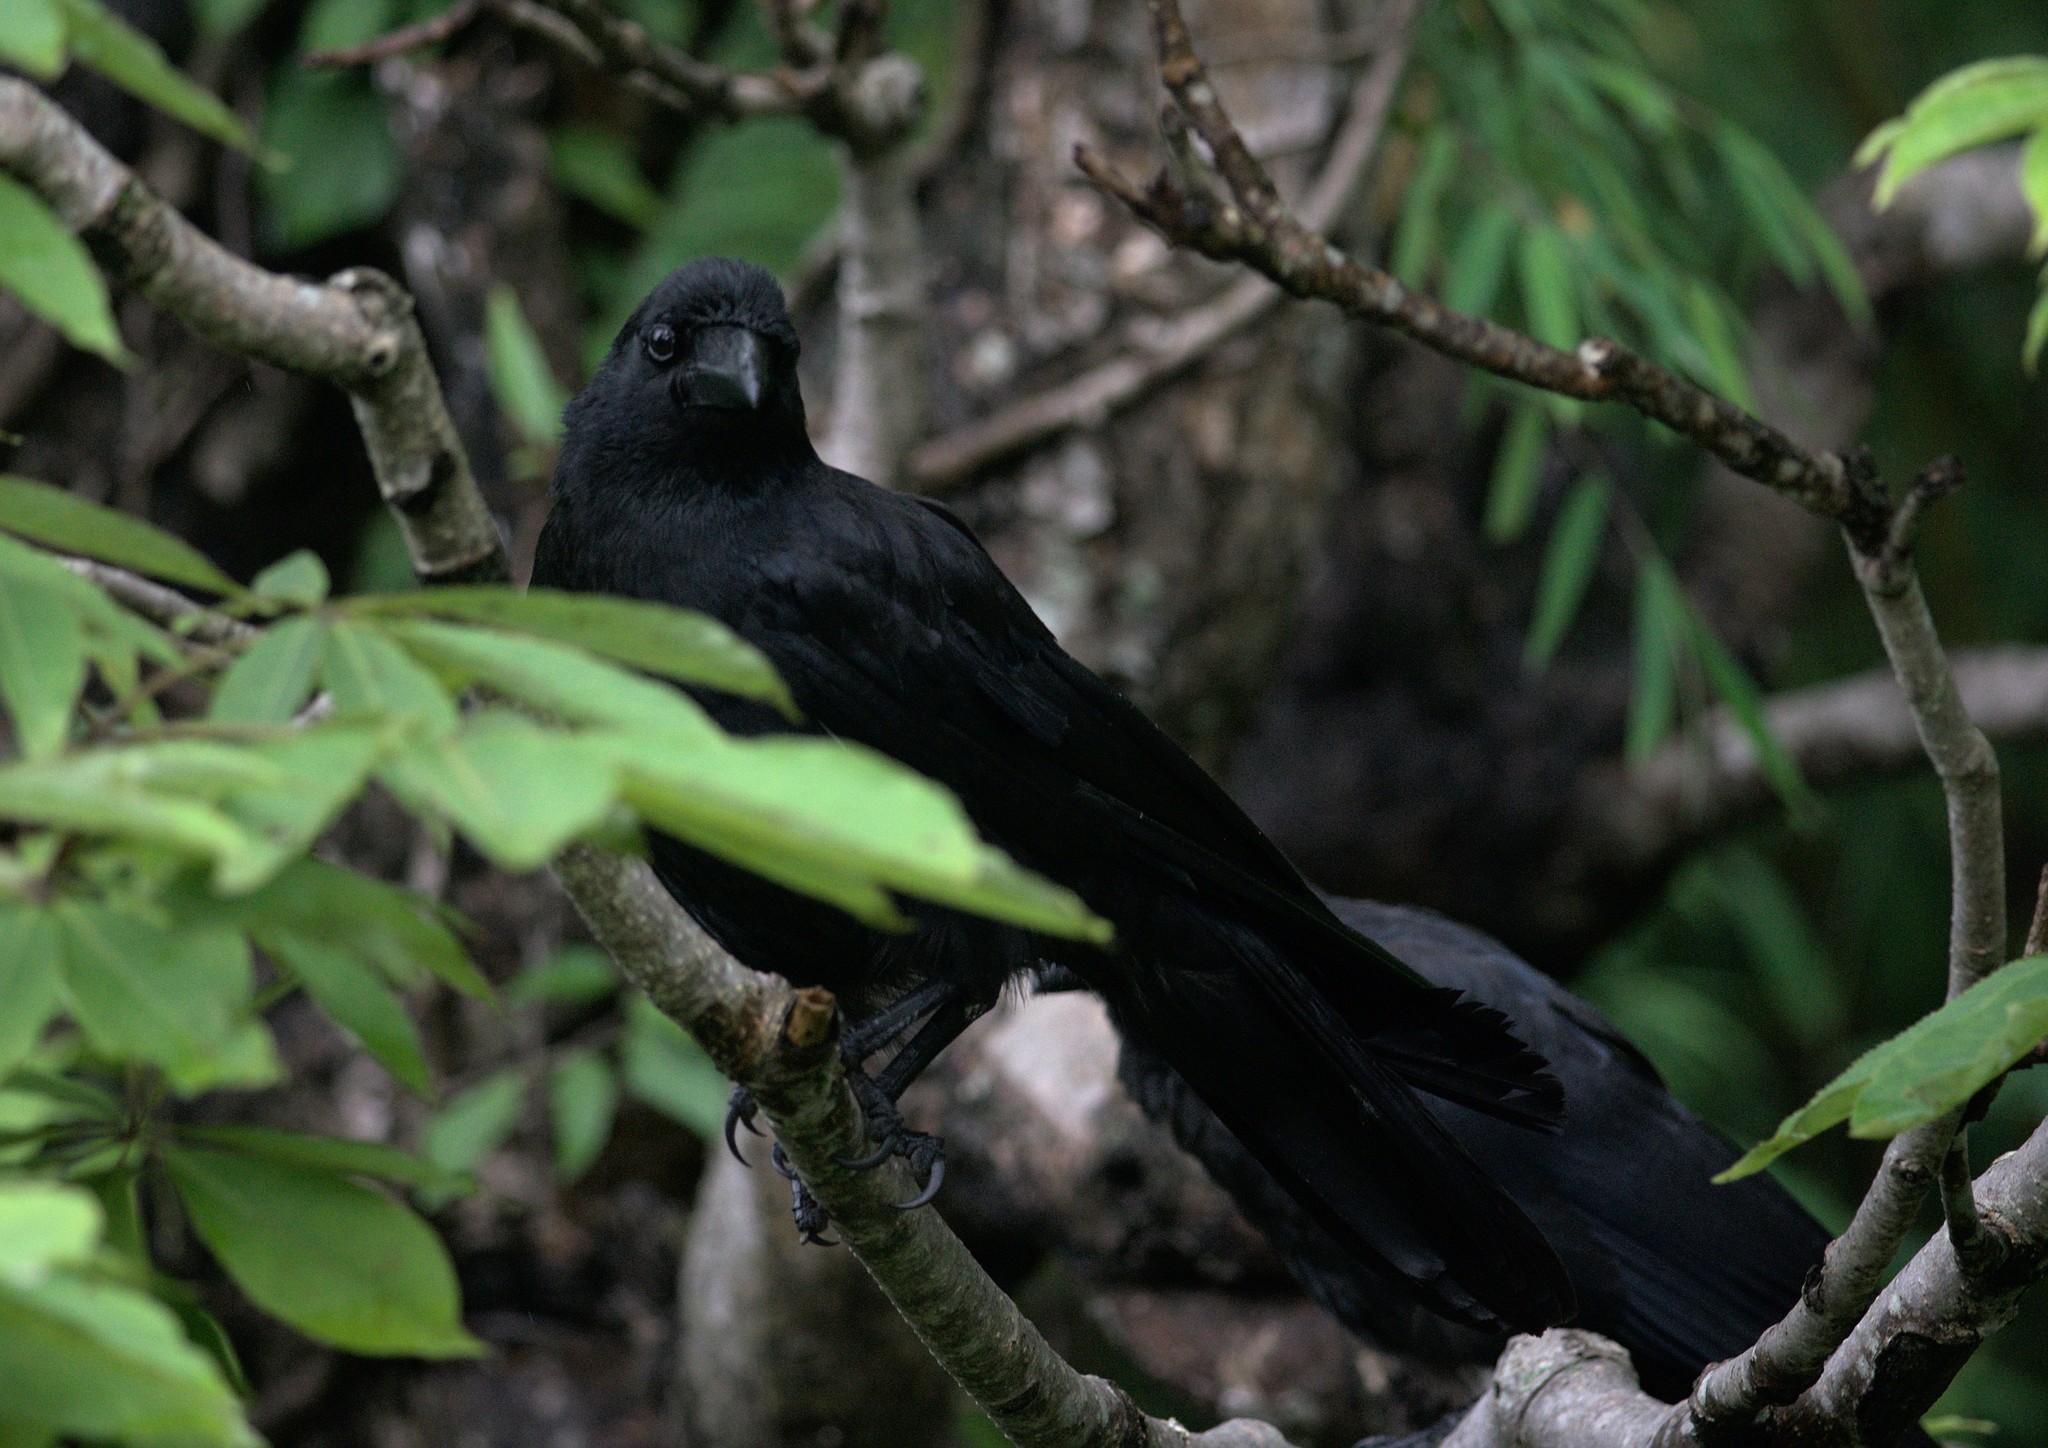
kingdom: Animalia
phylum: Chordata
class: Aves
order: Passeriformes
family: Corvidae
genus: Corvus
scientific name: Corvus macrorhynchos
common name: Large-billed crow
